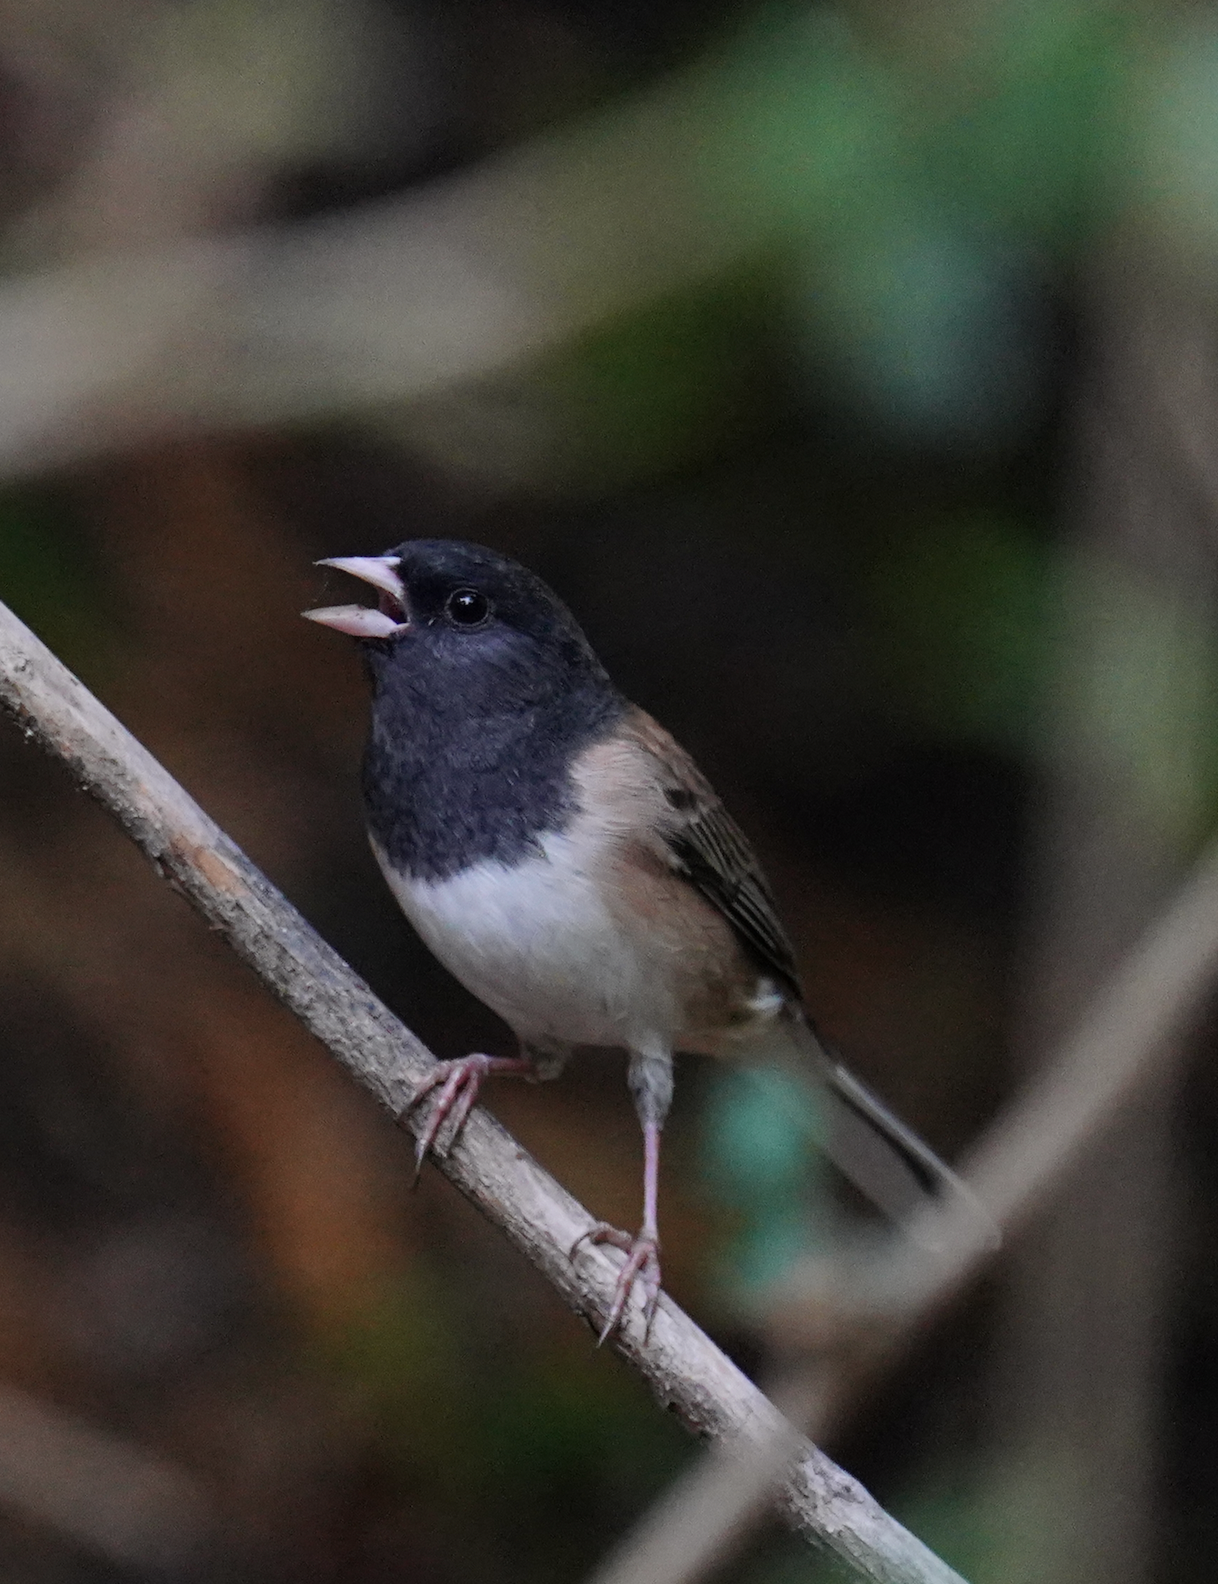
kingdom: Animalia
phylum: Chordata
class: Aves
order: Passeriformes
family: Passerellidae
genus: Junco
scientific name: Junco hyemalis
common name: Dark-eyed junco
